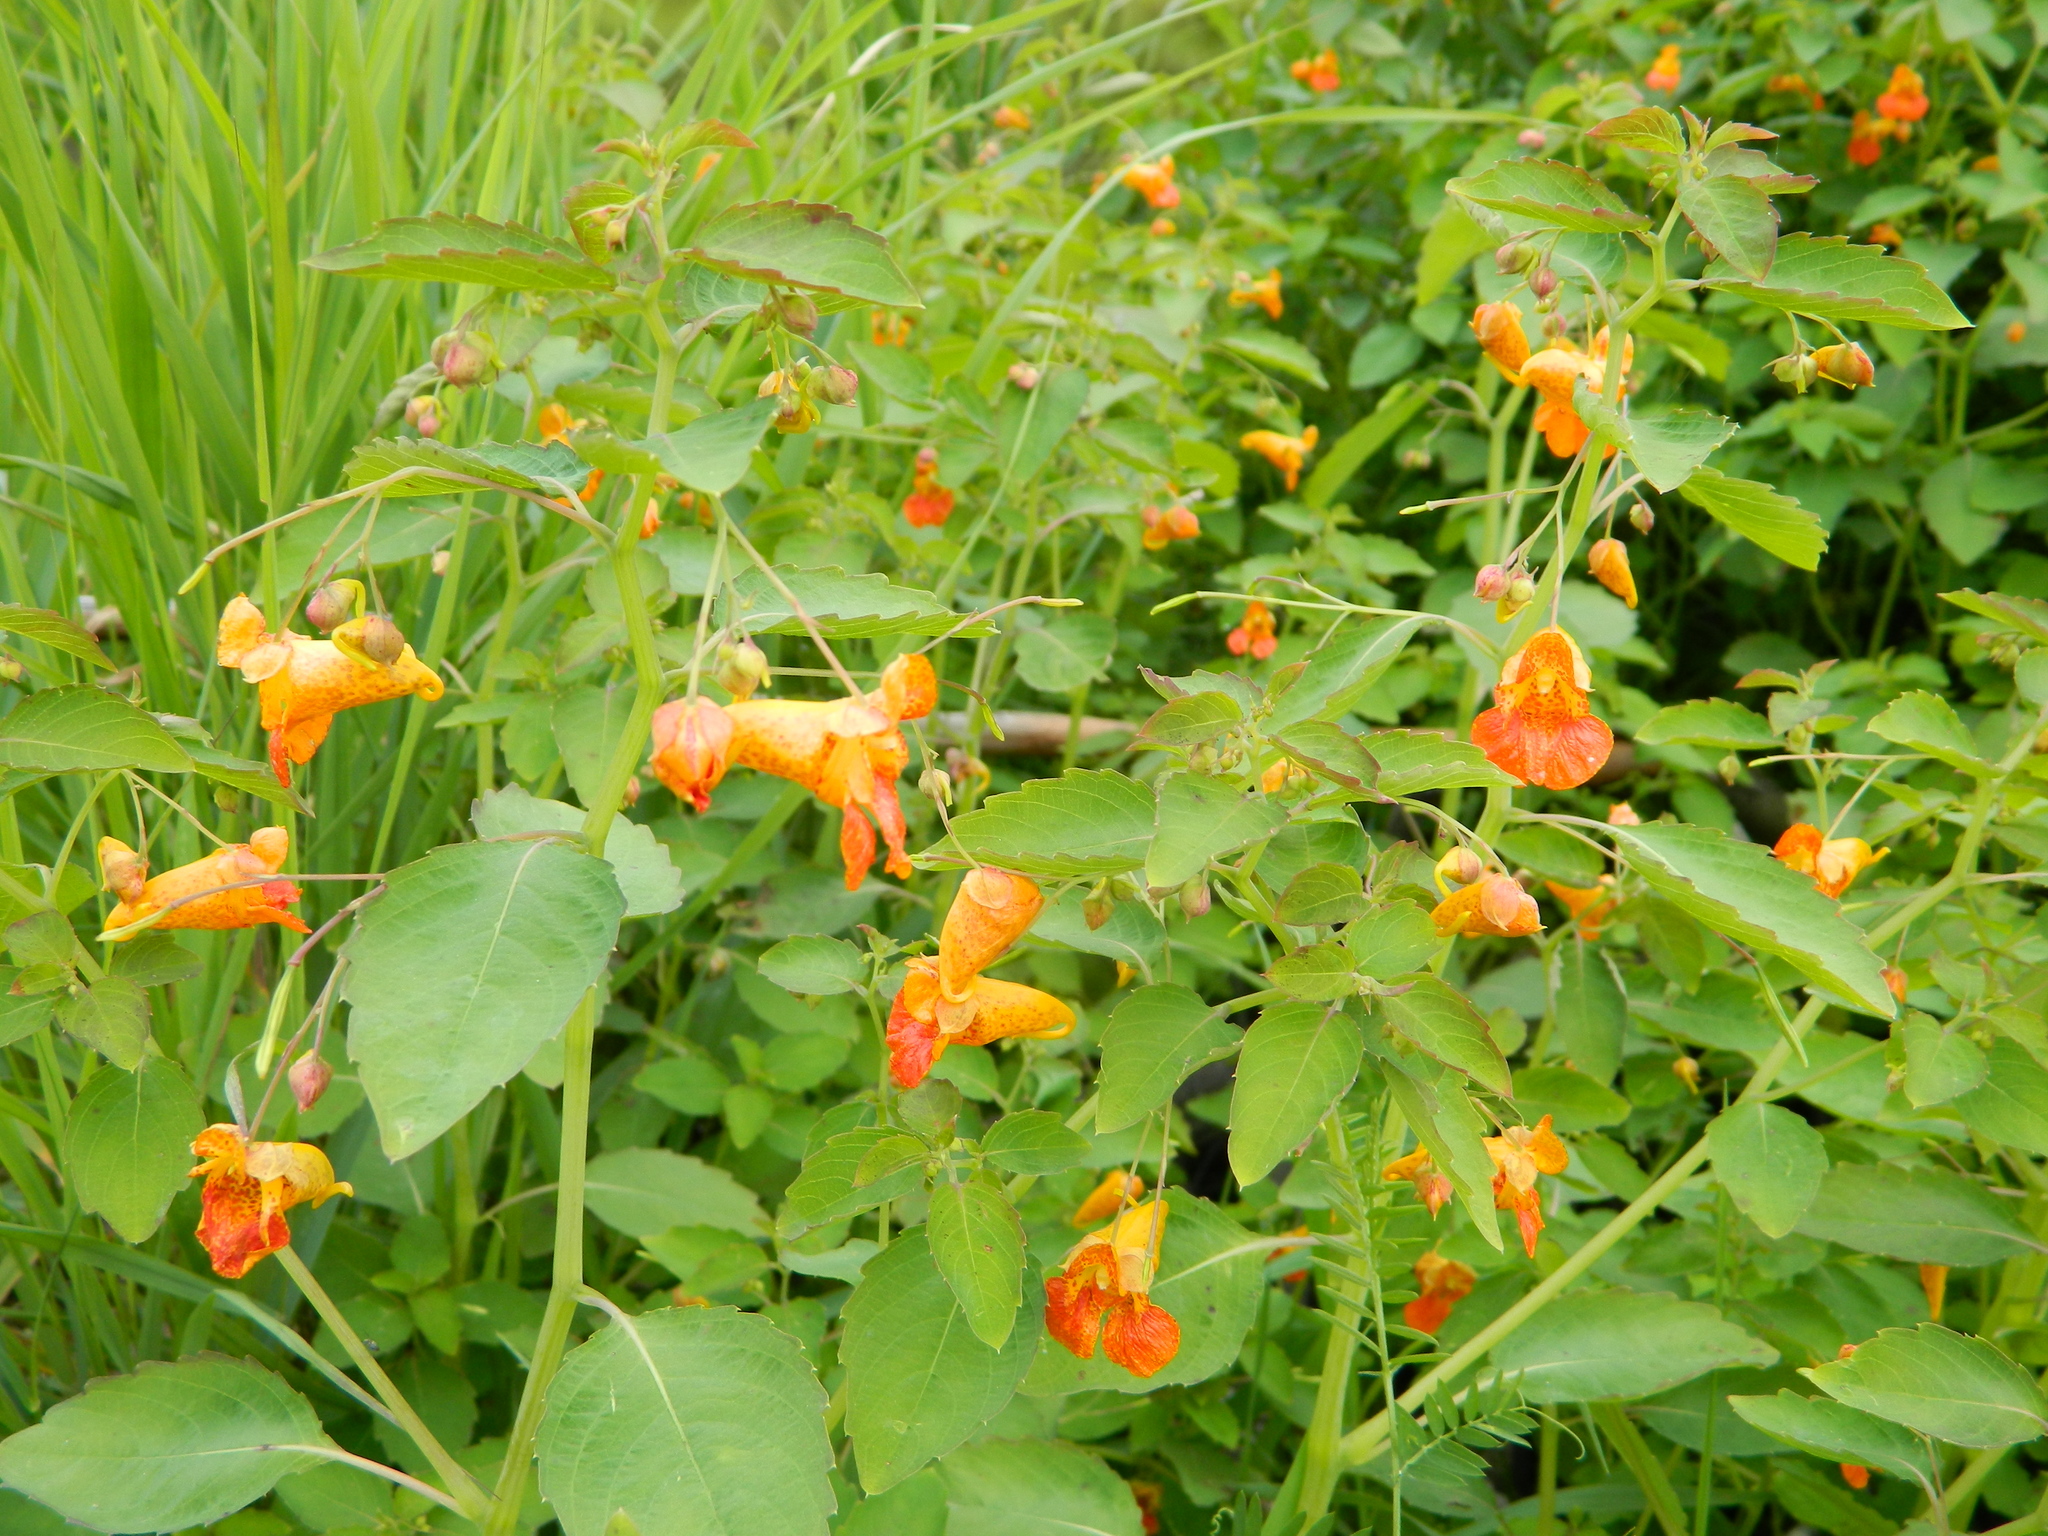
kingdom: Plantae
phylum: Tracheophyta
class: Magnoliopsida
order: Ericales
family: Balsaminaceae
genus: Impatiens
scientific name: Impatiens capensis
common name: Orange balsam
